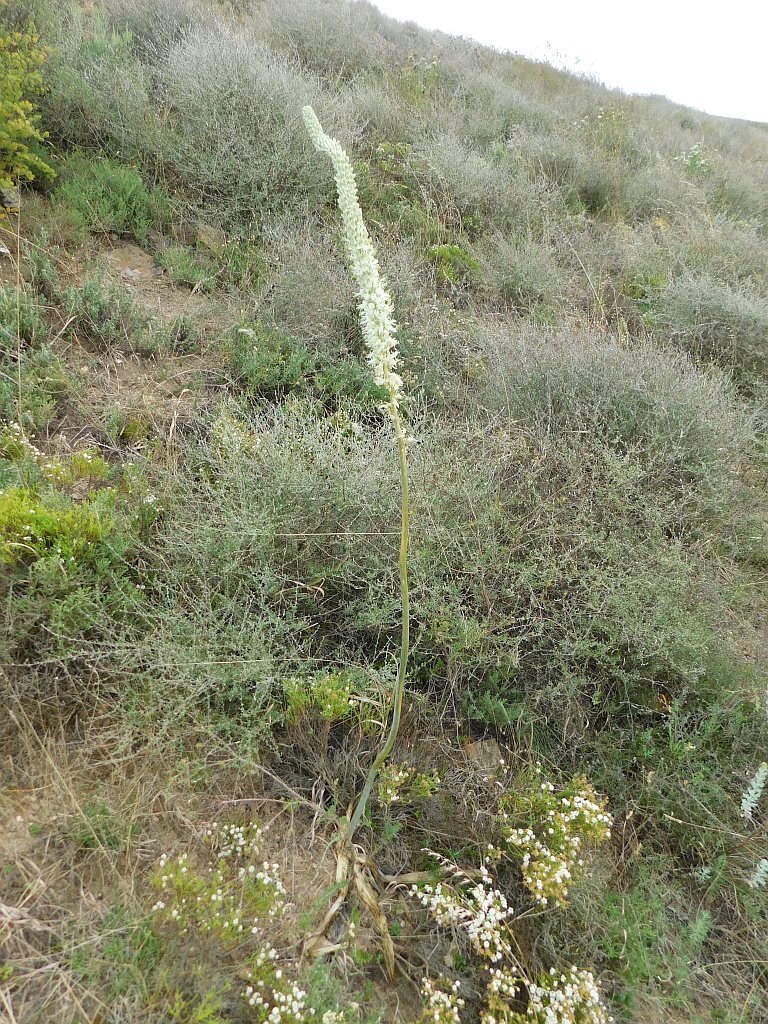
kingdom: Plantae
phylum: Tracheophyta
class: Liliopsida
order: Asparagales
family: Asparagaceae
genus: Drimia
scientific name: Drimia capensis
